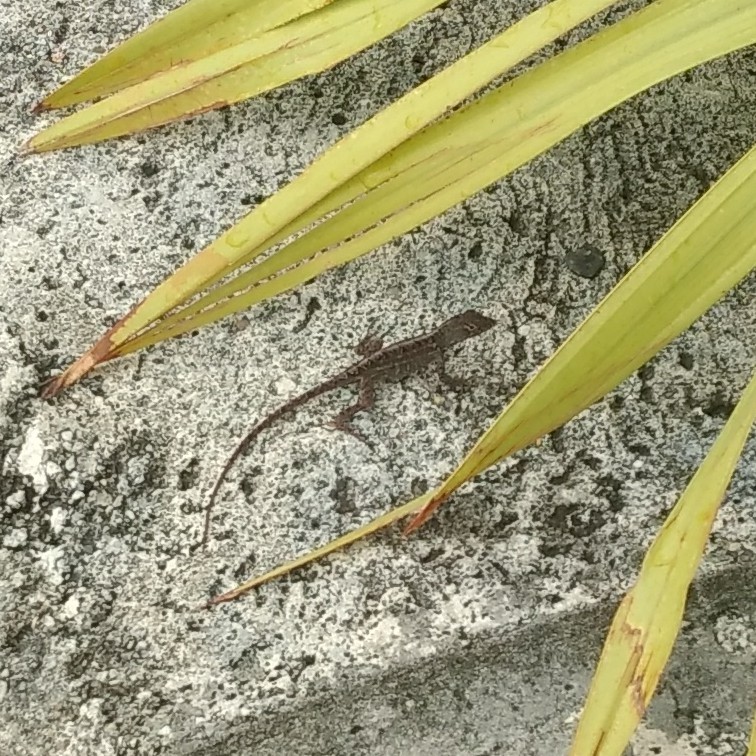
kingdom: Animalia
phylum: Chordata
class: Squamata
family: Dactyloidae
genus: Anolis
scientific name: Anolis sagrei
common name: Brown anole
